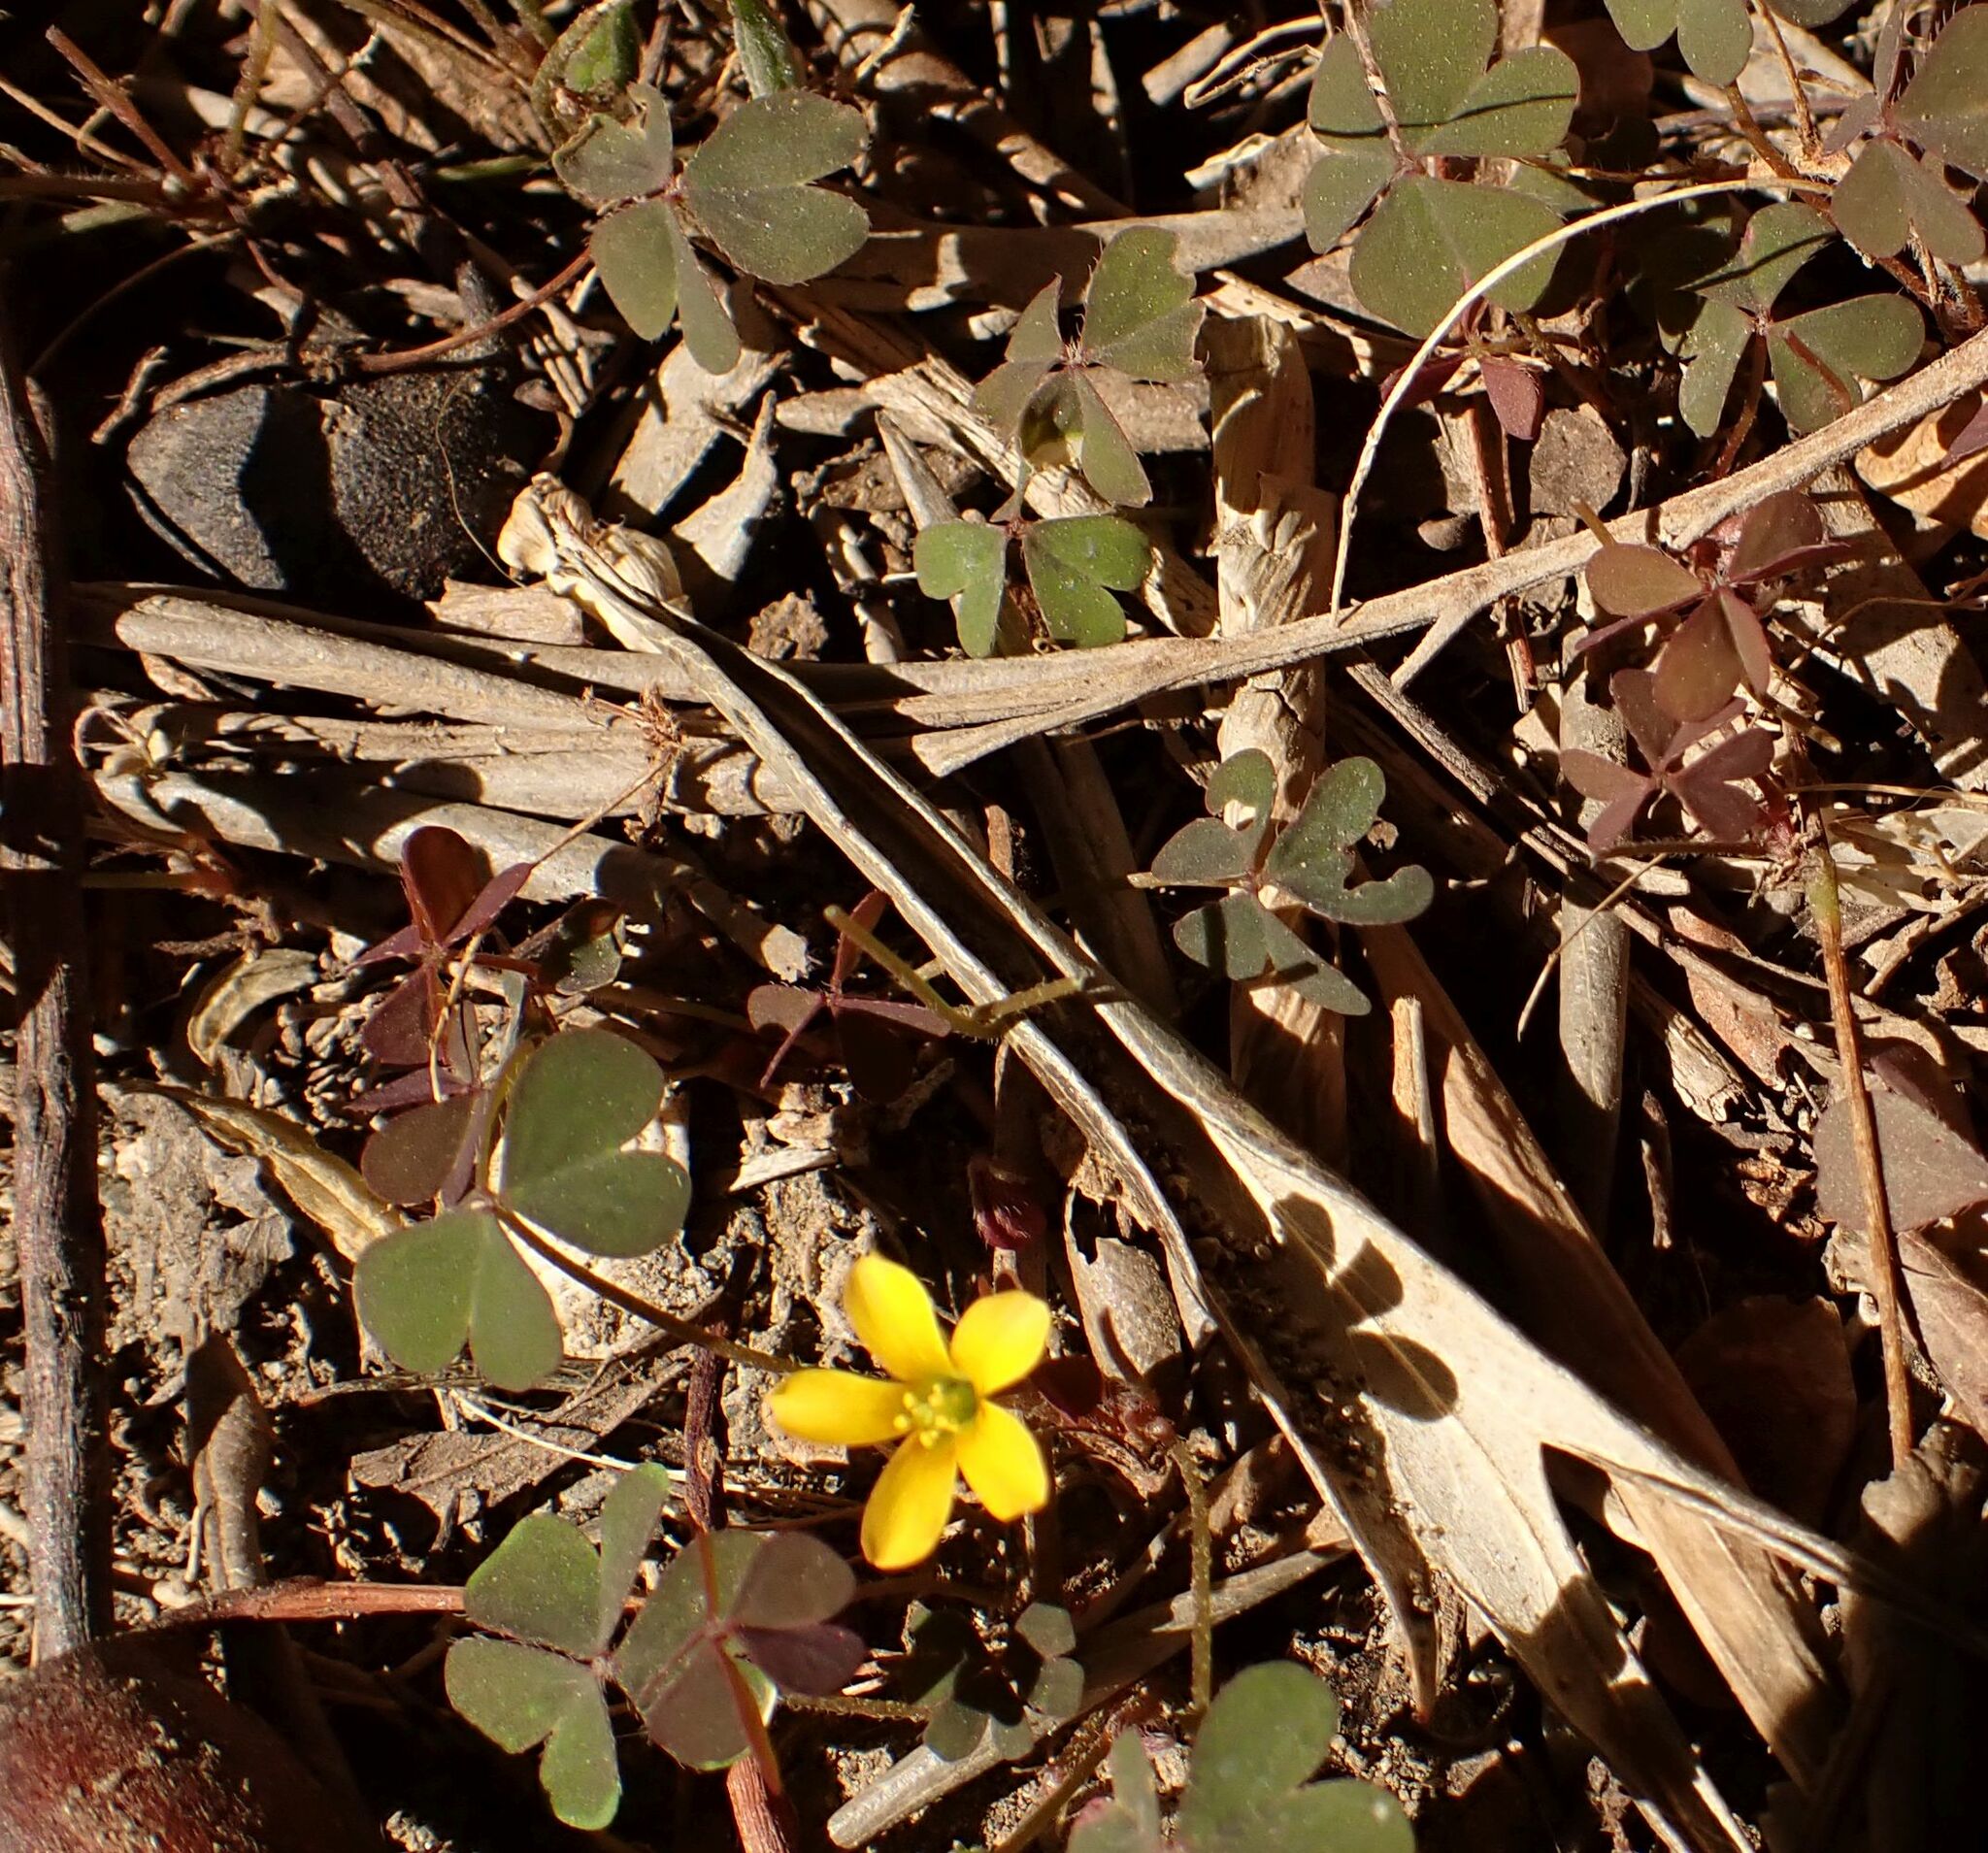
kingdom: Plantae
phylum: Tracheophyta
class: Magnoliopsida
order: Oxalidales
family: Oxalidaceae
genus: Oxalis
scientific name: Oxalis corniculata
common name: Procumbent yellow-sorrel
